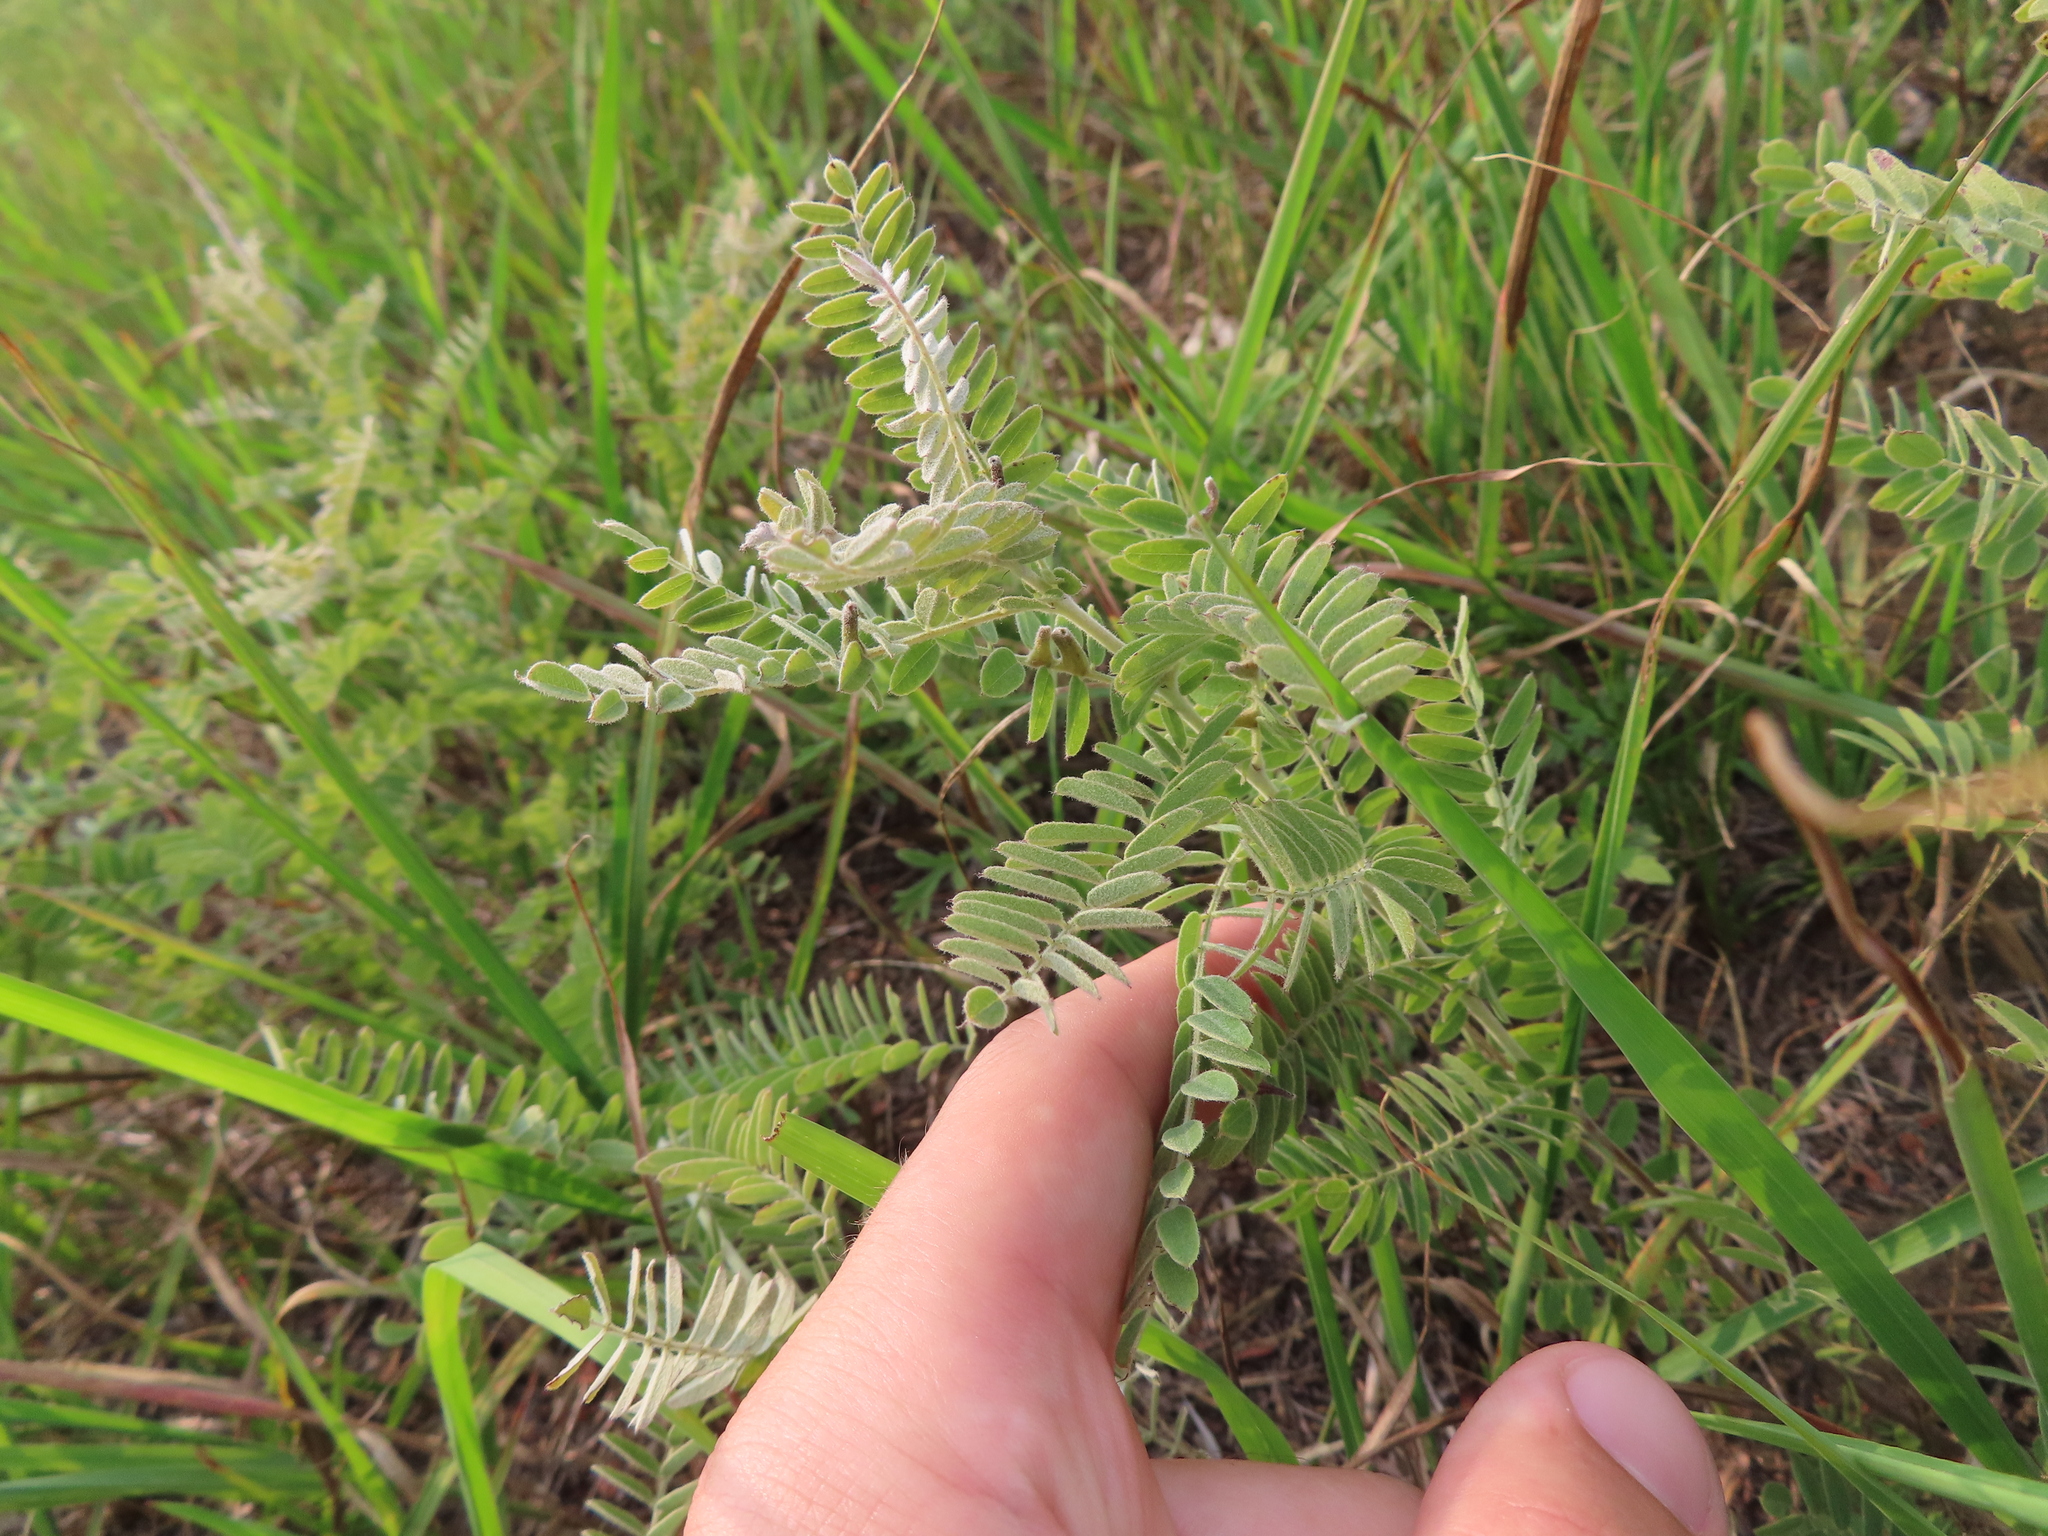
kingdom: Plantae
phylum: Tracheophyta
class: Magnoliopsida
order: Fabales
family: Fabaceae
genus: Amorpha
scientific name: Amorpha canescens
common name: Leadplant
